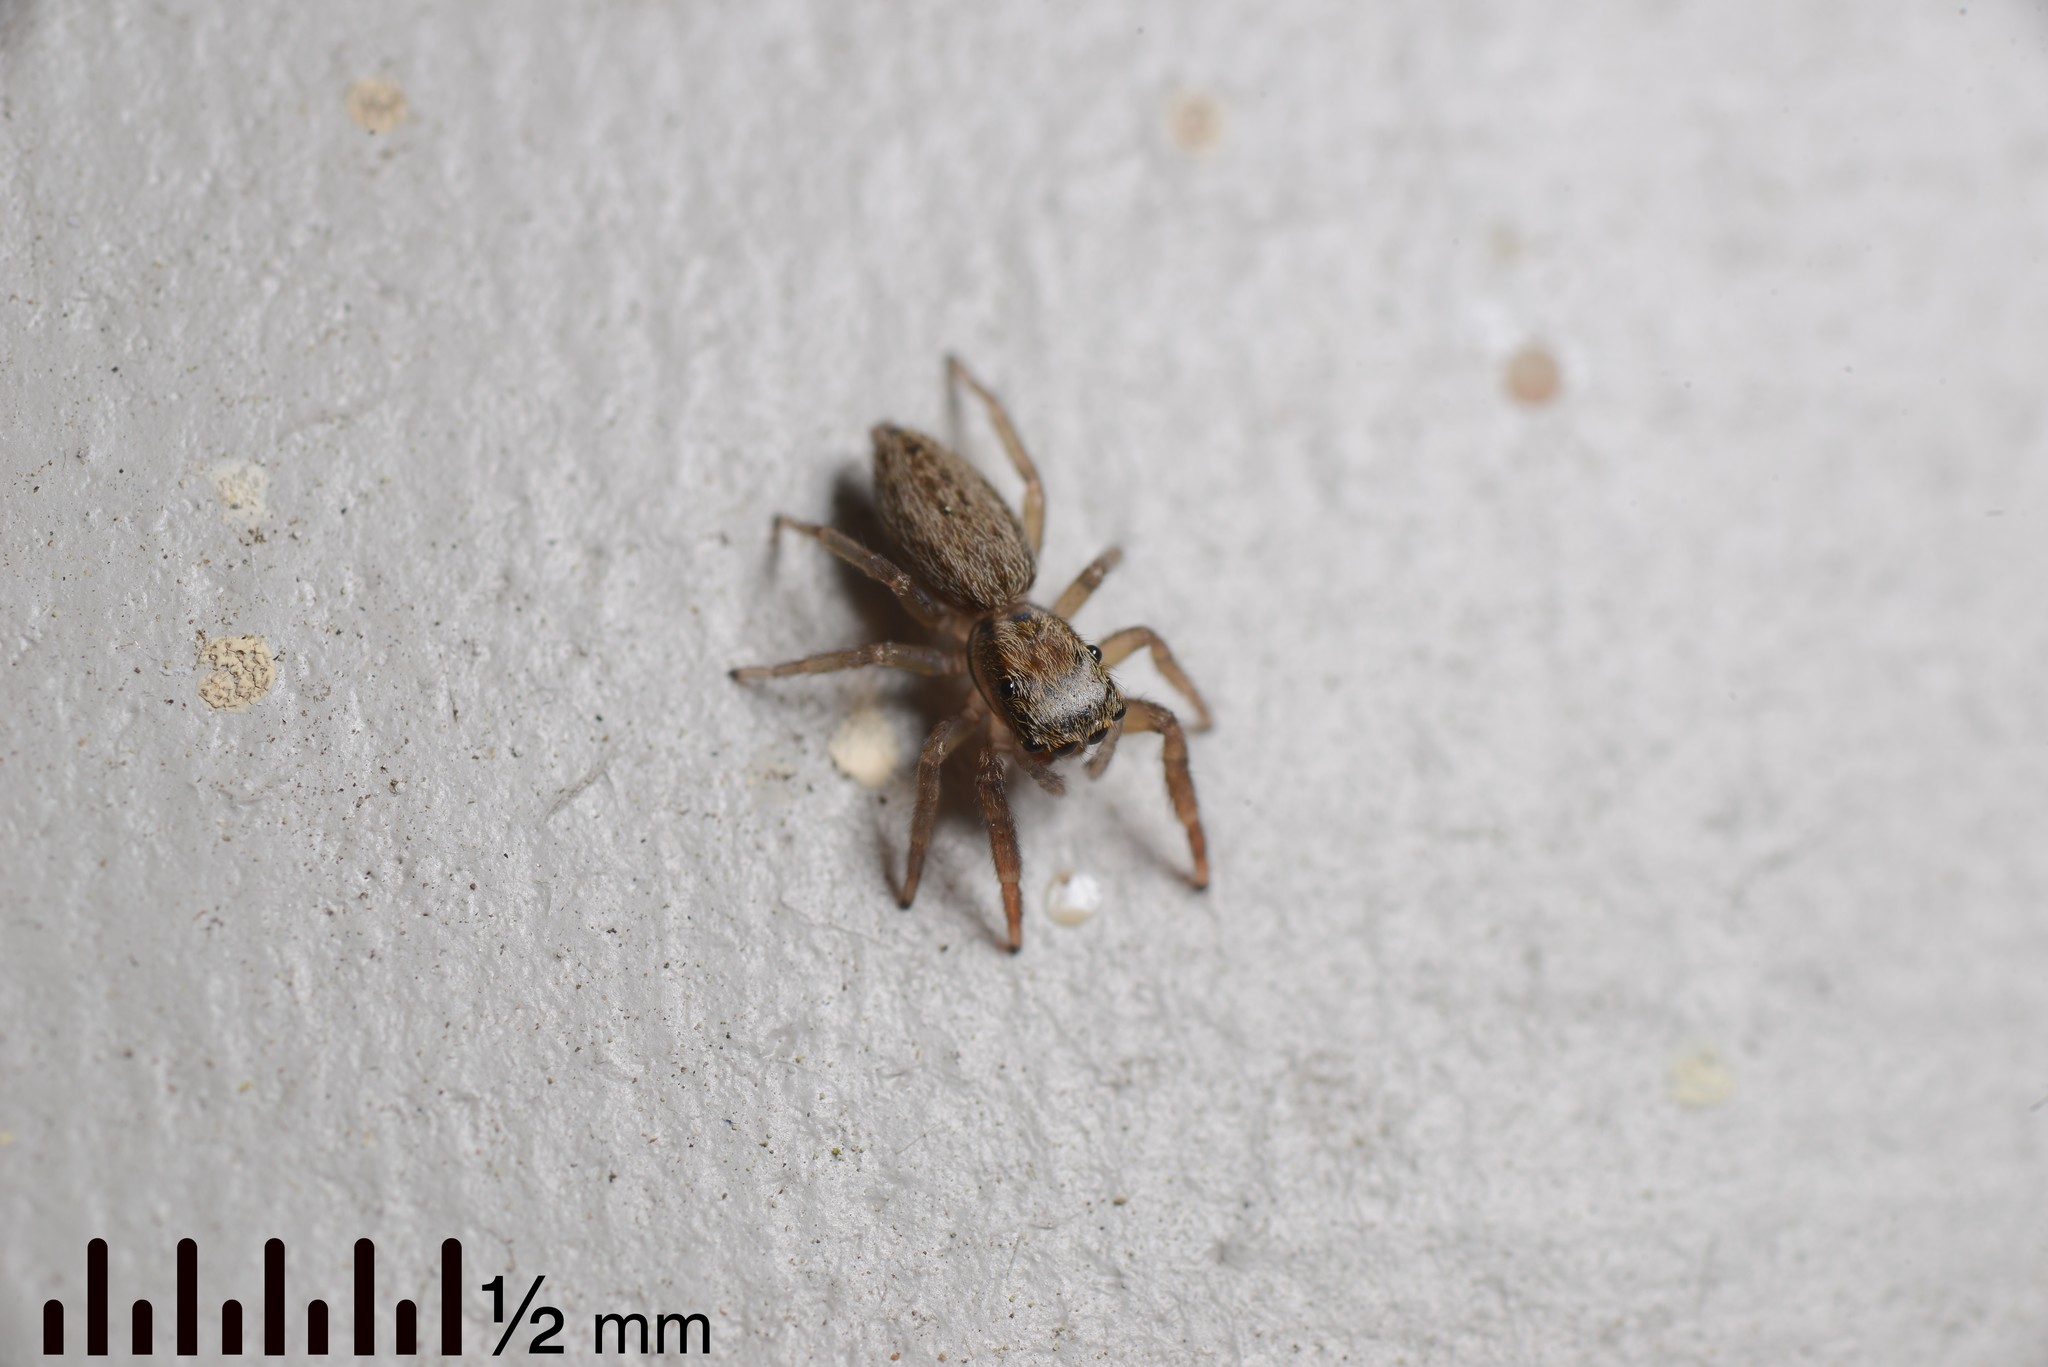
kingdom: Animalia
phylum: Arthropoda
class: Arachnida
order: Araneae
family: Salticidae
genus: Trite
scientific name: Trite auricoma
